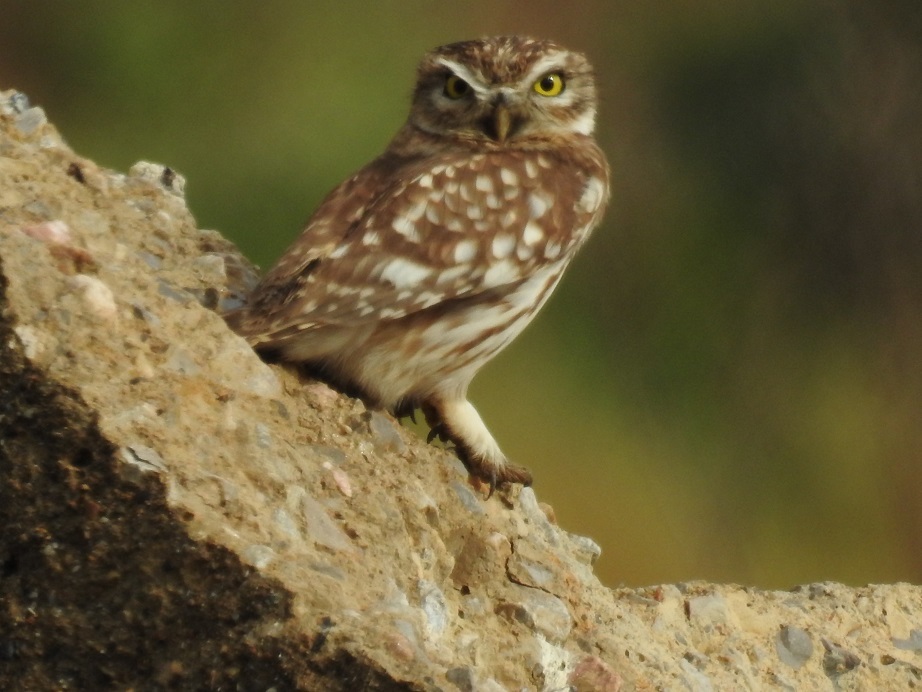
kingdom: Animalia
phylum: Chordata
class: Aves
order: Strigiformes
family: Strigidae
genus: Athene
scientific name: Athene noctua
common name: Little owl
